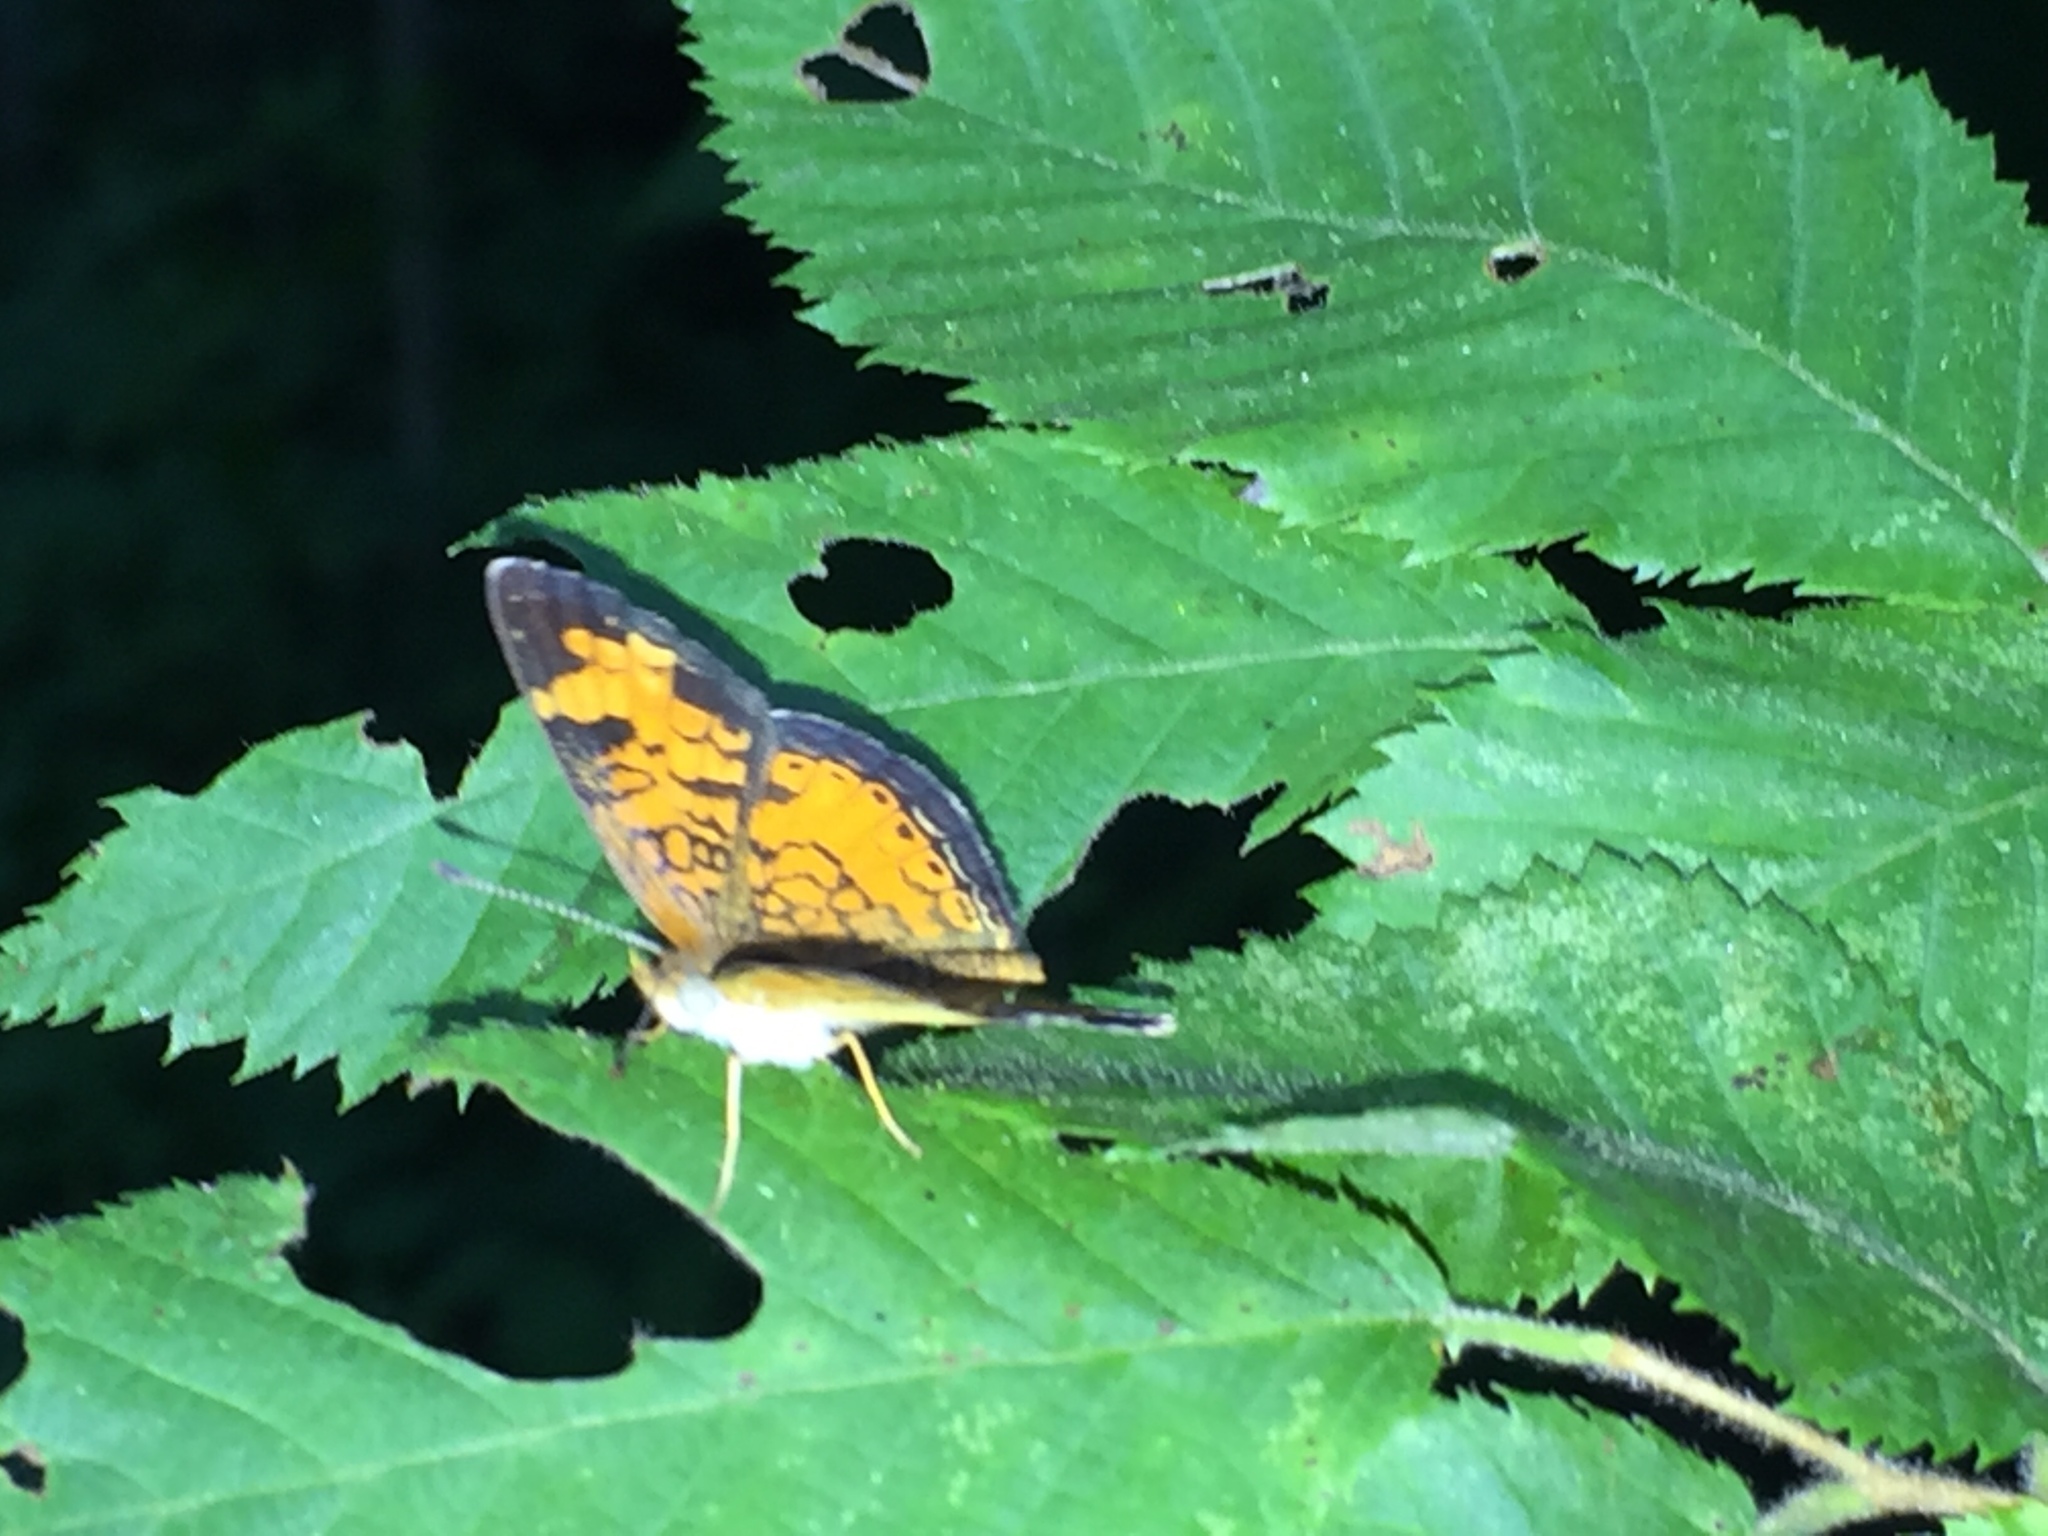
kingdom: Animalia
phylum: Arthropoda
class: Insecta
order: Lepidoptera
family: Nymphalidae
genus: Phyciodes
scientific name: Phyciodes tharos
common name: Pearl crescent
